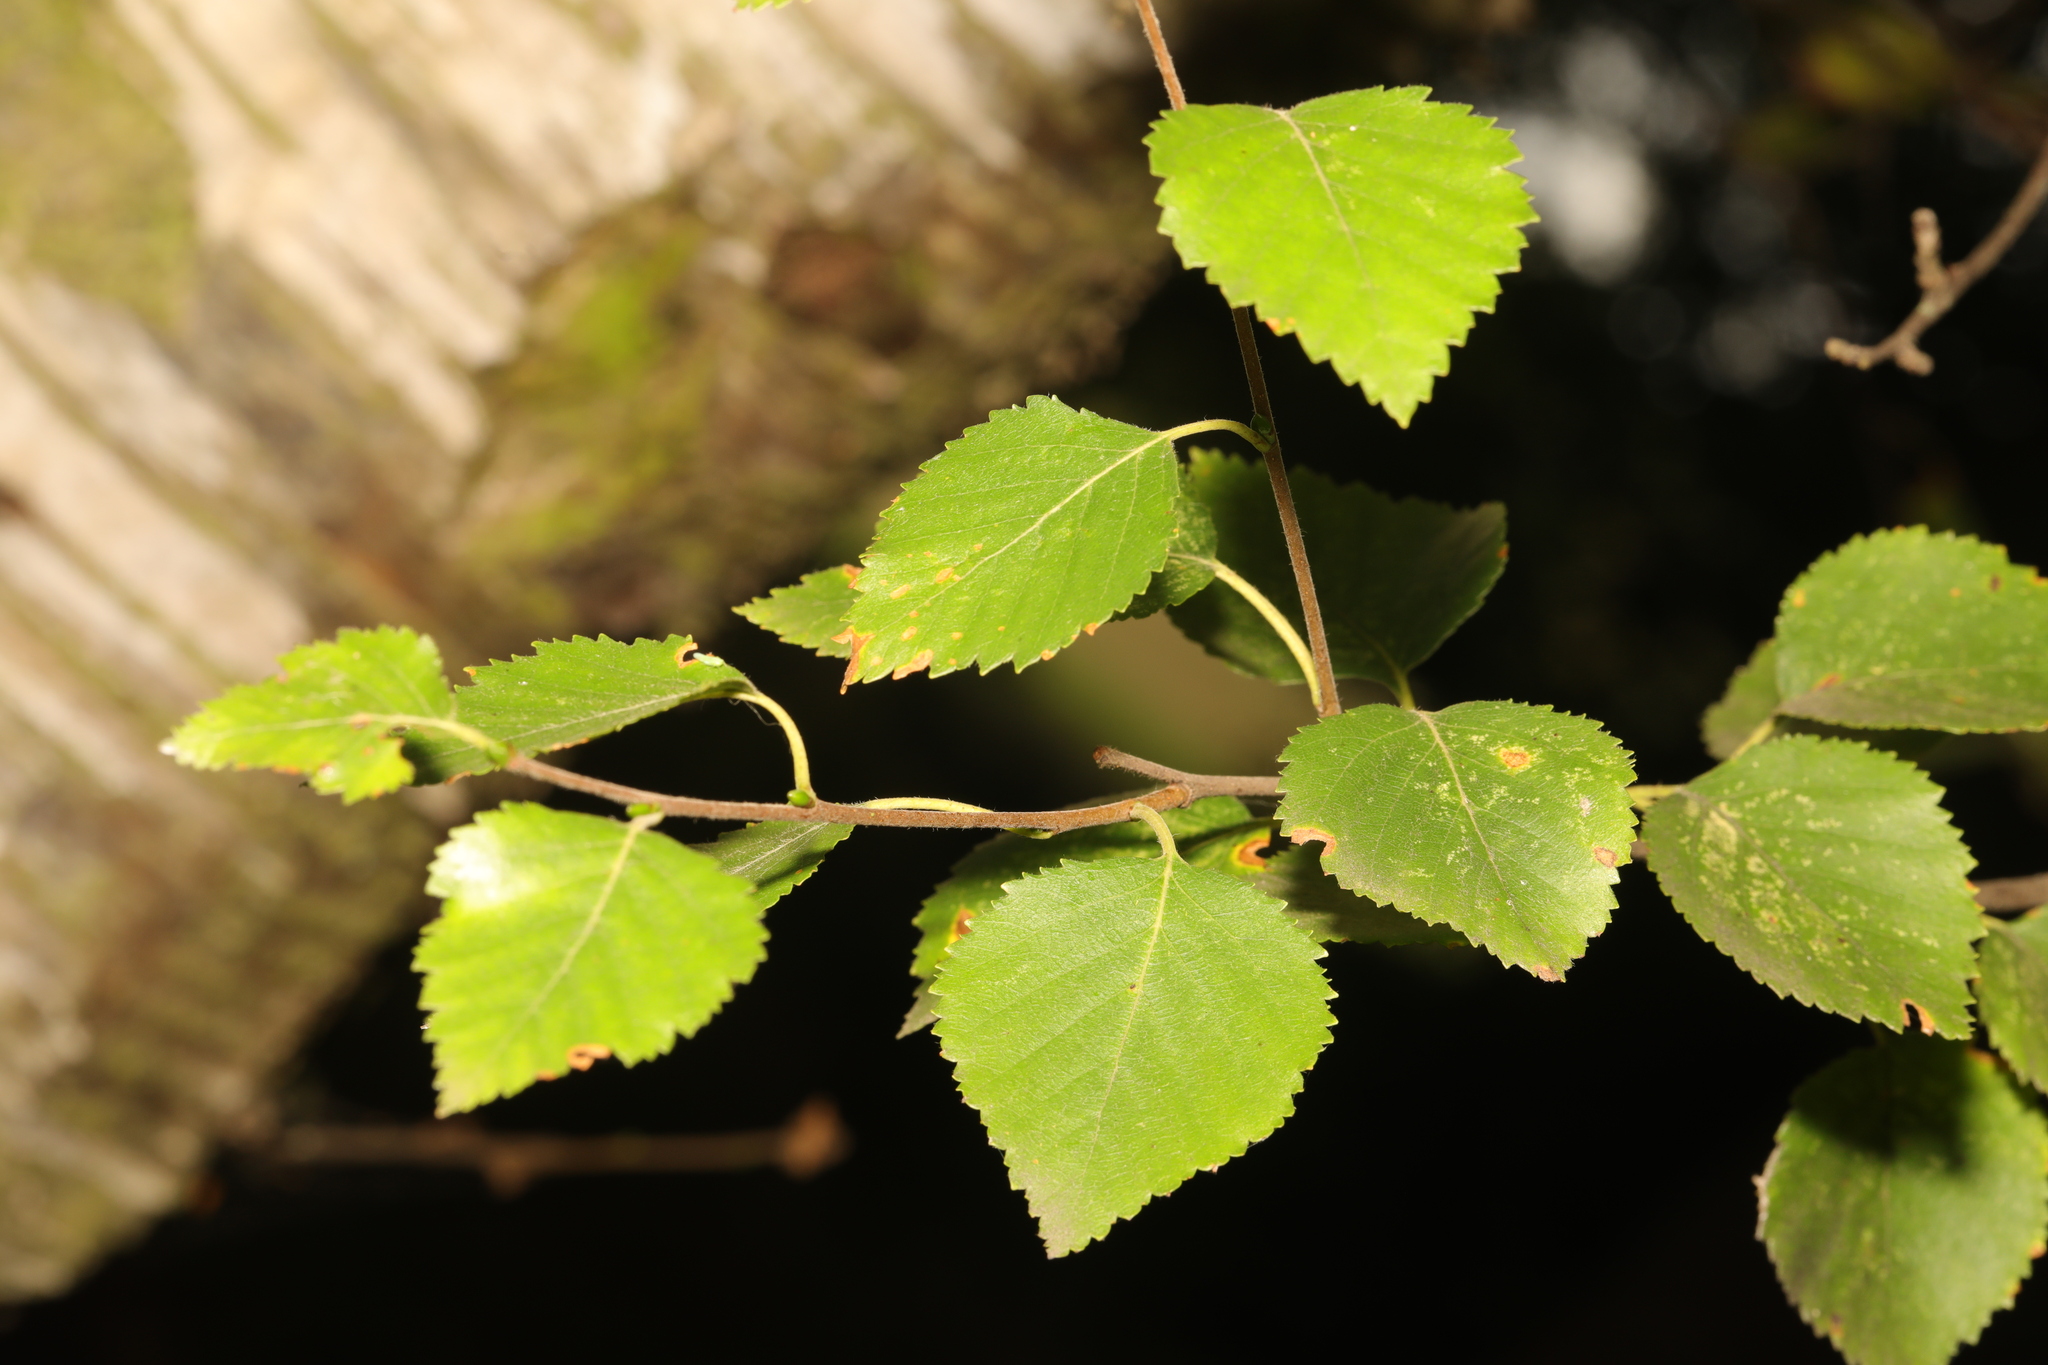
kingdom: Plantae
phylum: Tracheophyta
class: Magnoliopsida
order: Fagales
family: Betulaceae
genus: Betula
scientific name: Betula pubescens
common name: Downy birch
